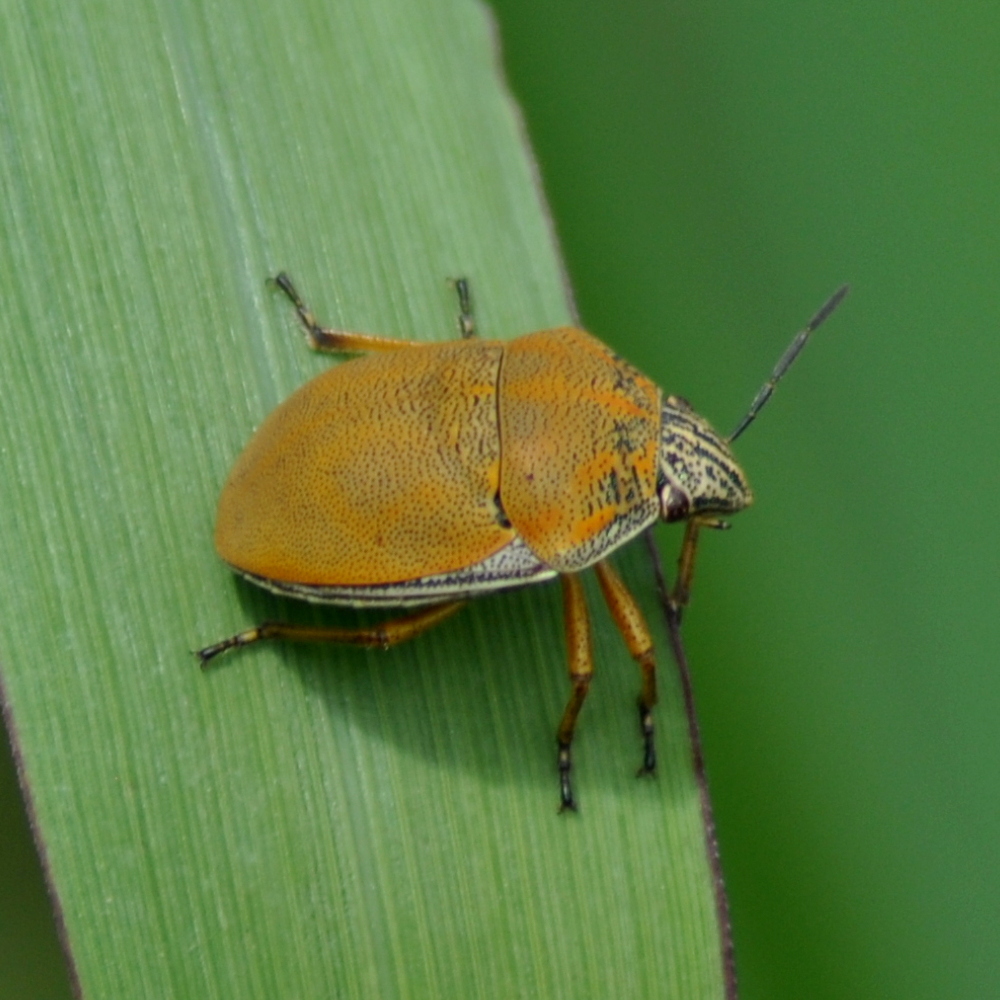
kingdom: Animalia
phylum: Arthropoda
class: Insecta
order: Hemiptera
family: Scutelleridae
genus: Orsilochides
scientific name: Orsilochides
